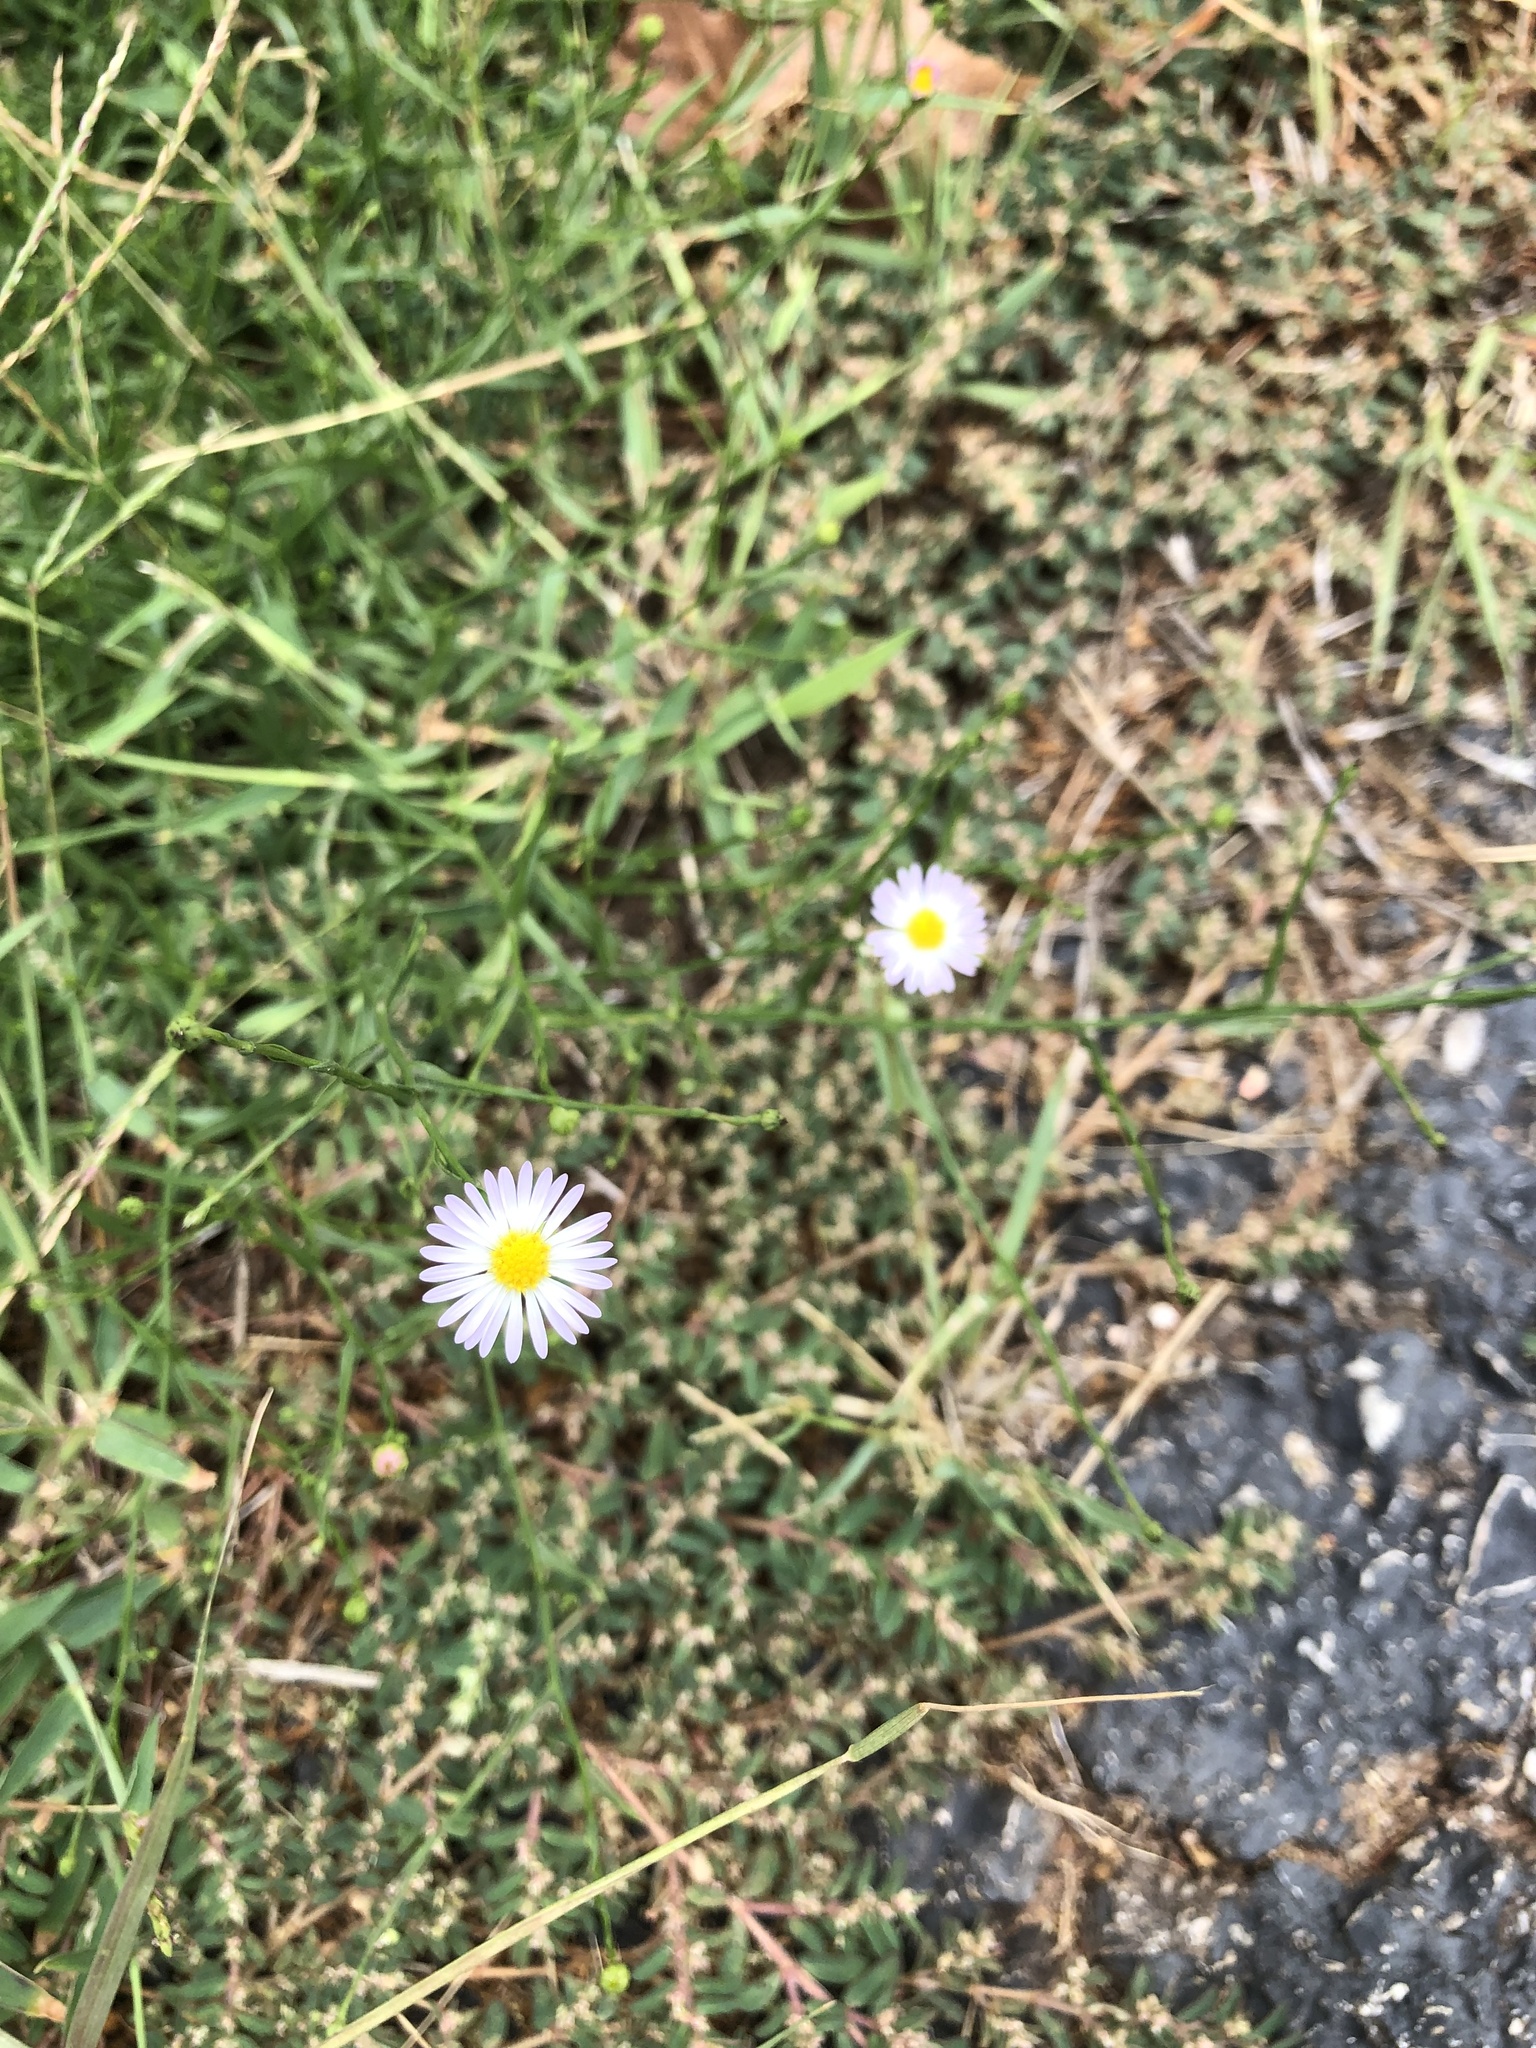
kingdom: Plantae
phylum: Tracheophyta
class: Magnoliopsida
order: Asterales
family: Asteraceae
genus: Symphyotrichum
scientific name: Symphyotrichum divaricatum
